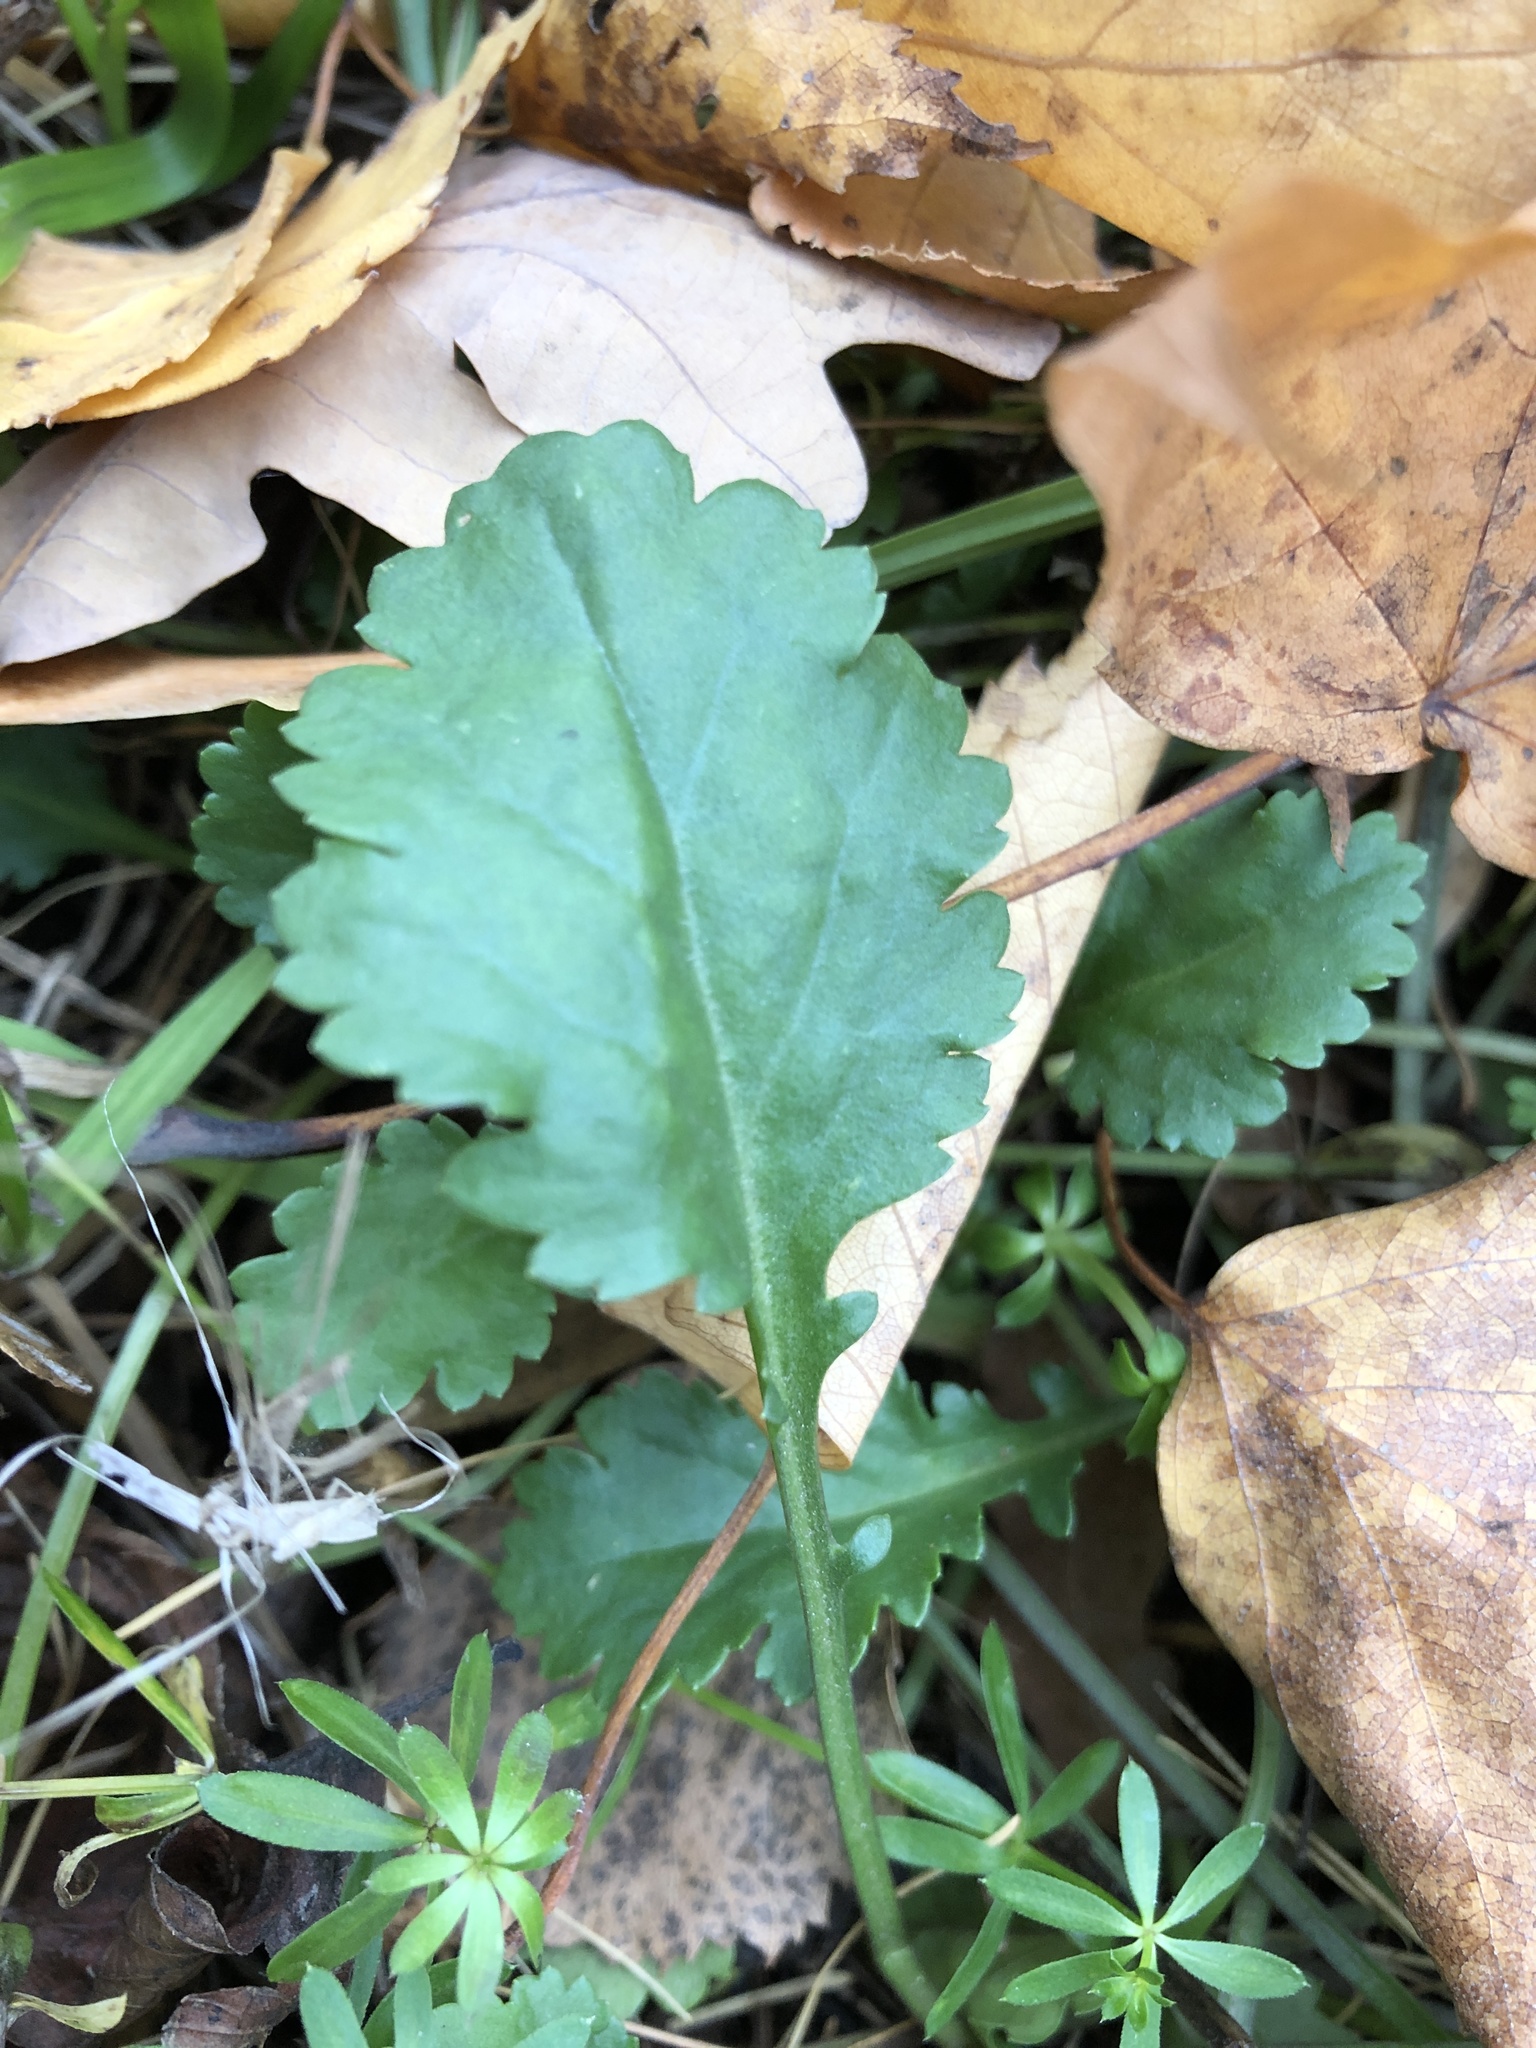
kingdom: Plantae
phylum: Tracheophyta
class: Magnoliopsida
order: Asterales
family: Asteraceae
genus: Leucanthemum
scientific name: Leucanthemum vulgare
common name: Oxeye daisy
